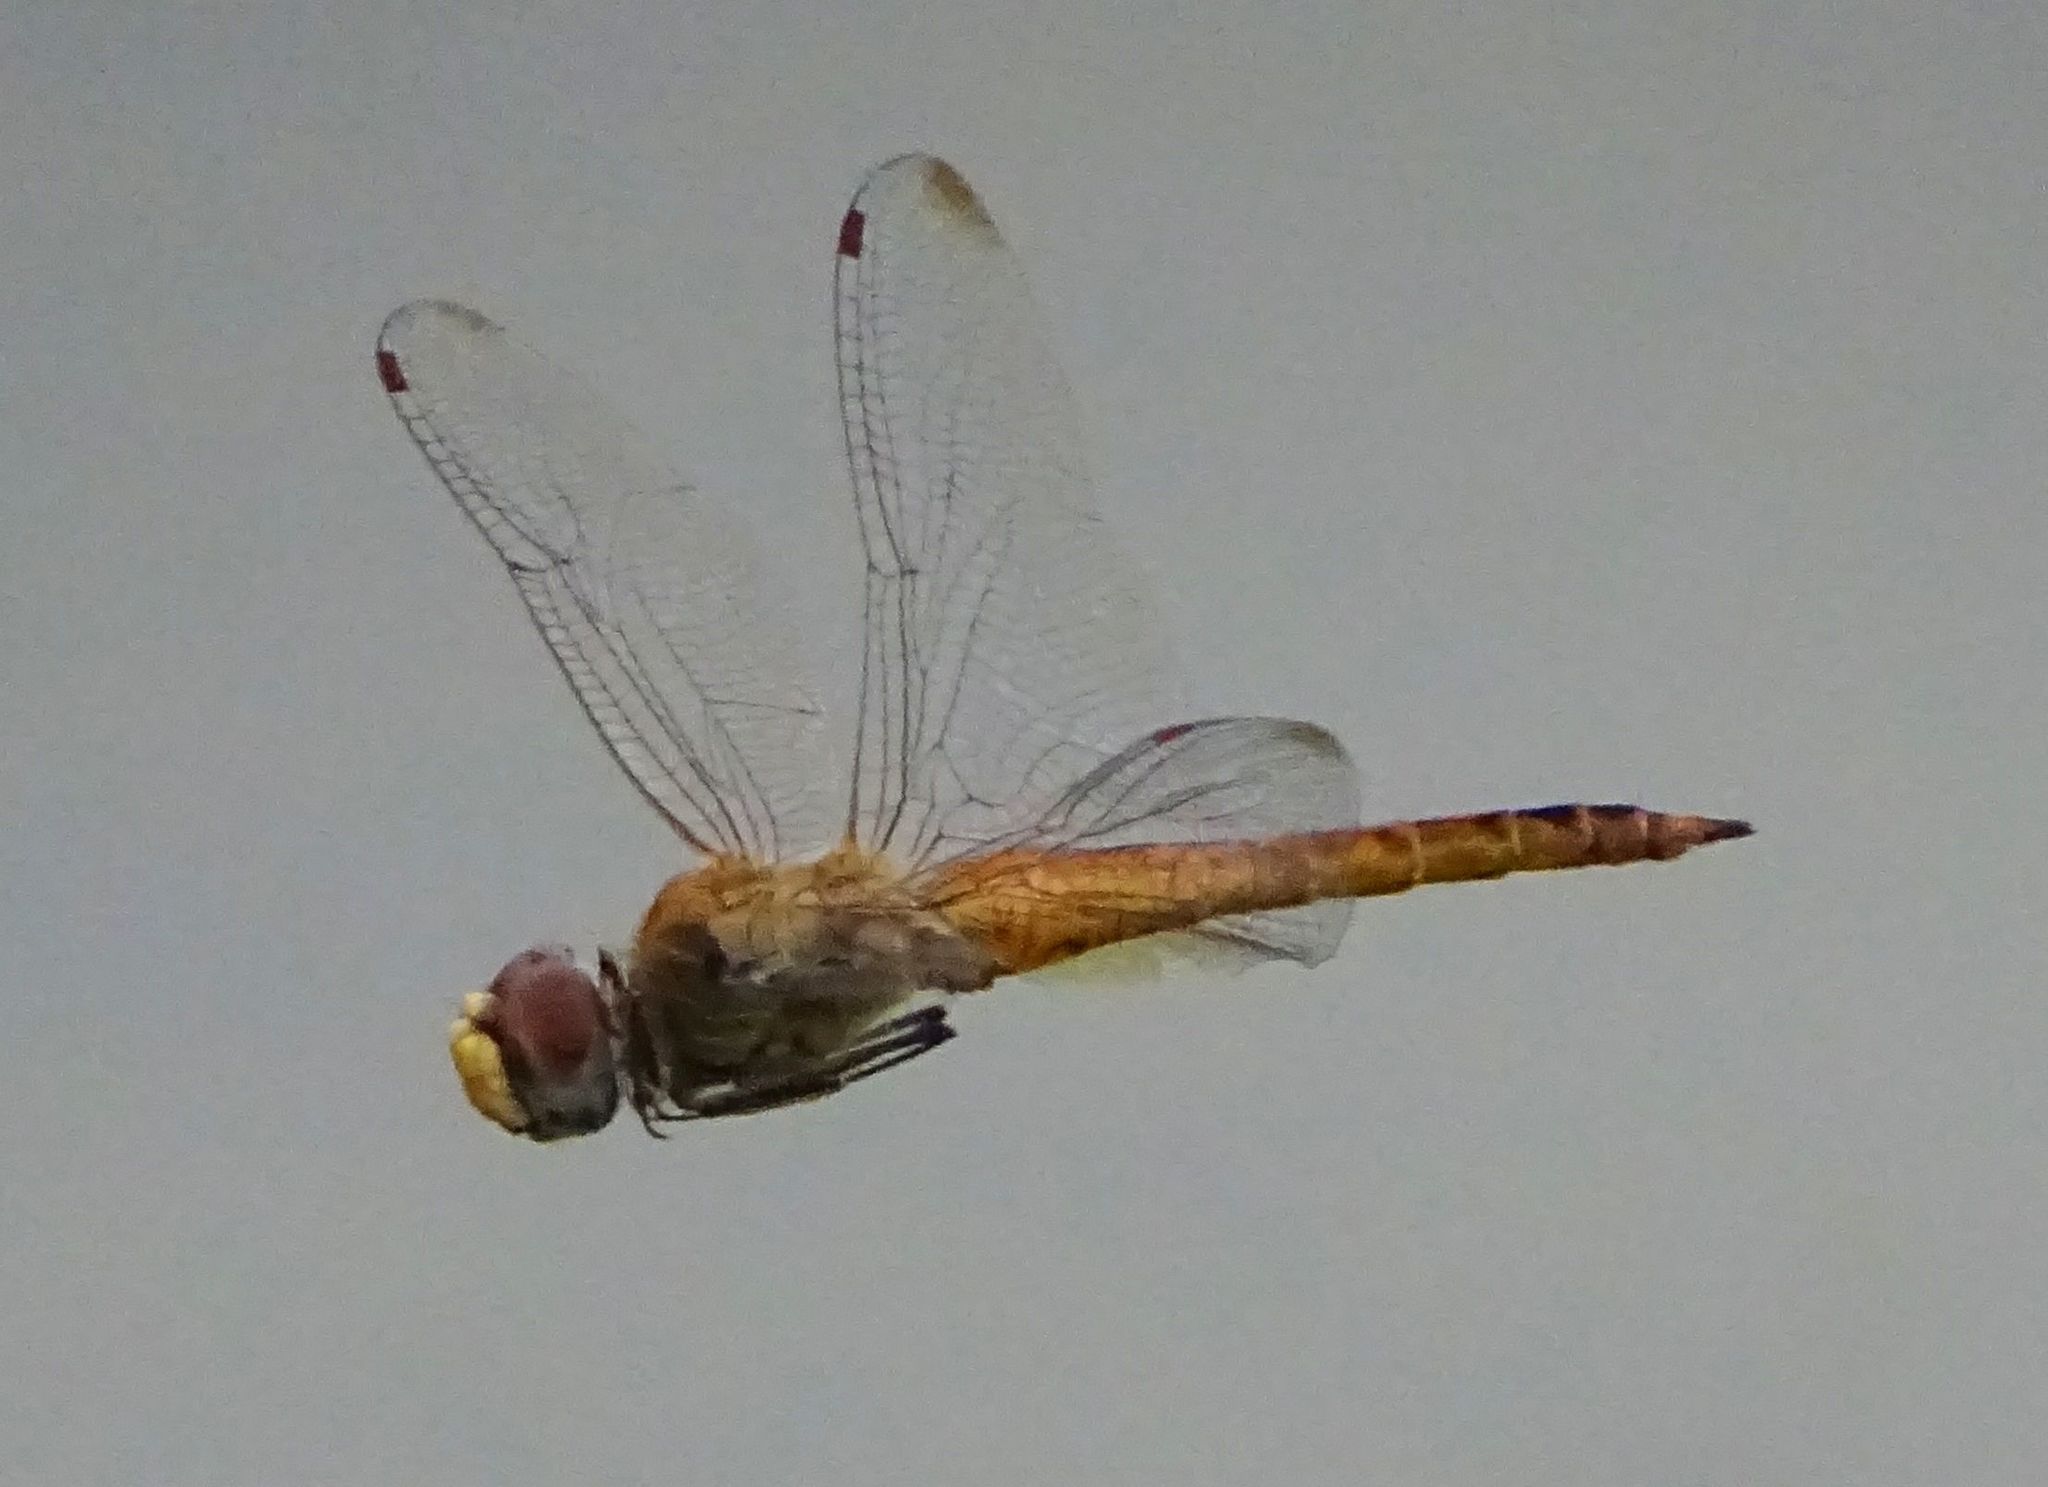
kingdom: Animalia
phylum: Arthropoda
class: Insecta
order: Odonata
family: Libellulidae
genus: Pantala
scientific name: Pantala flavescens
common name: Wandering glider
